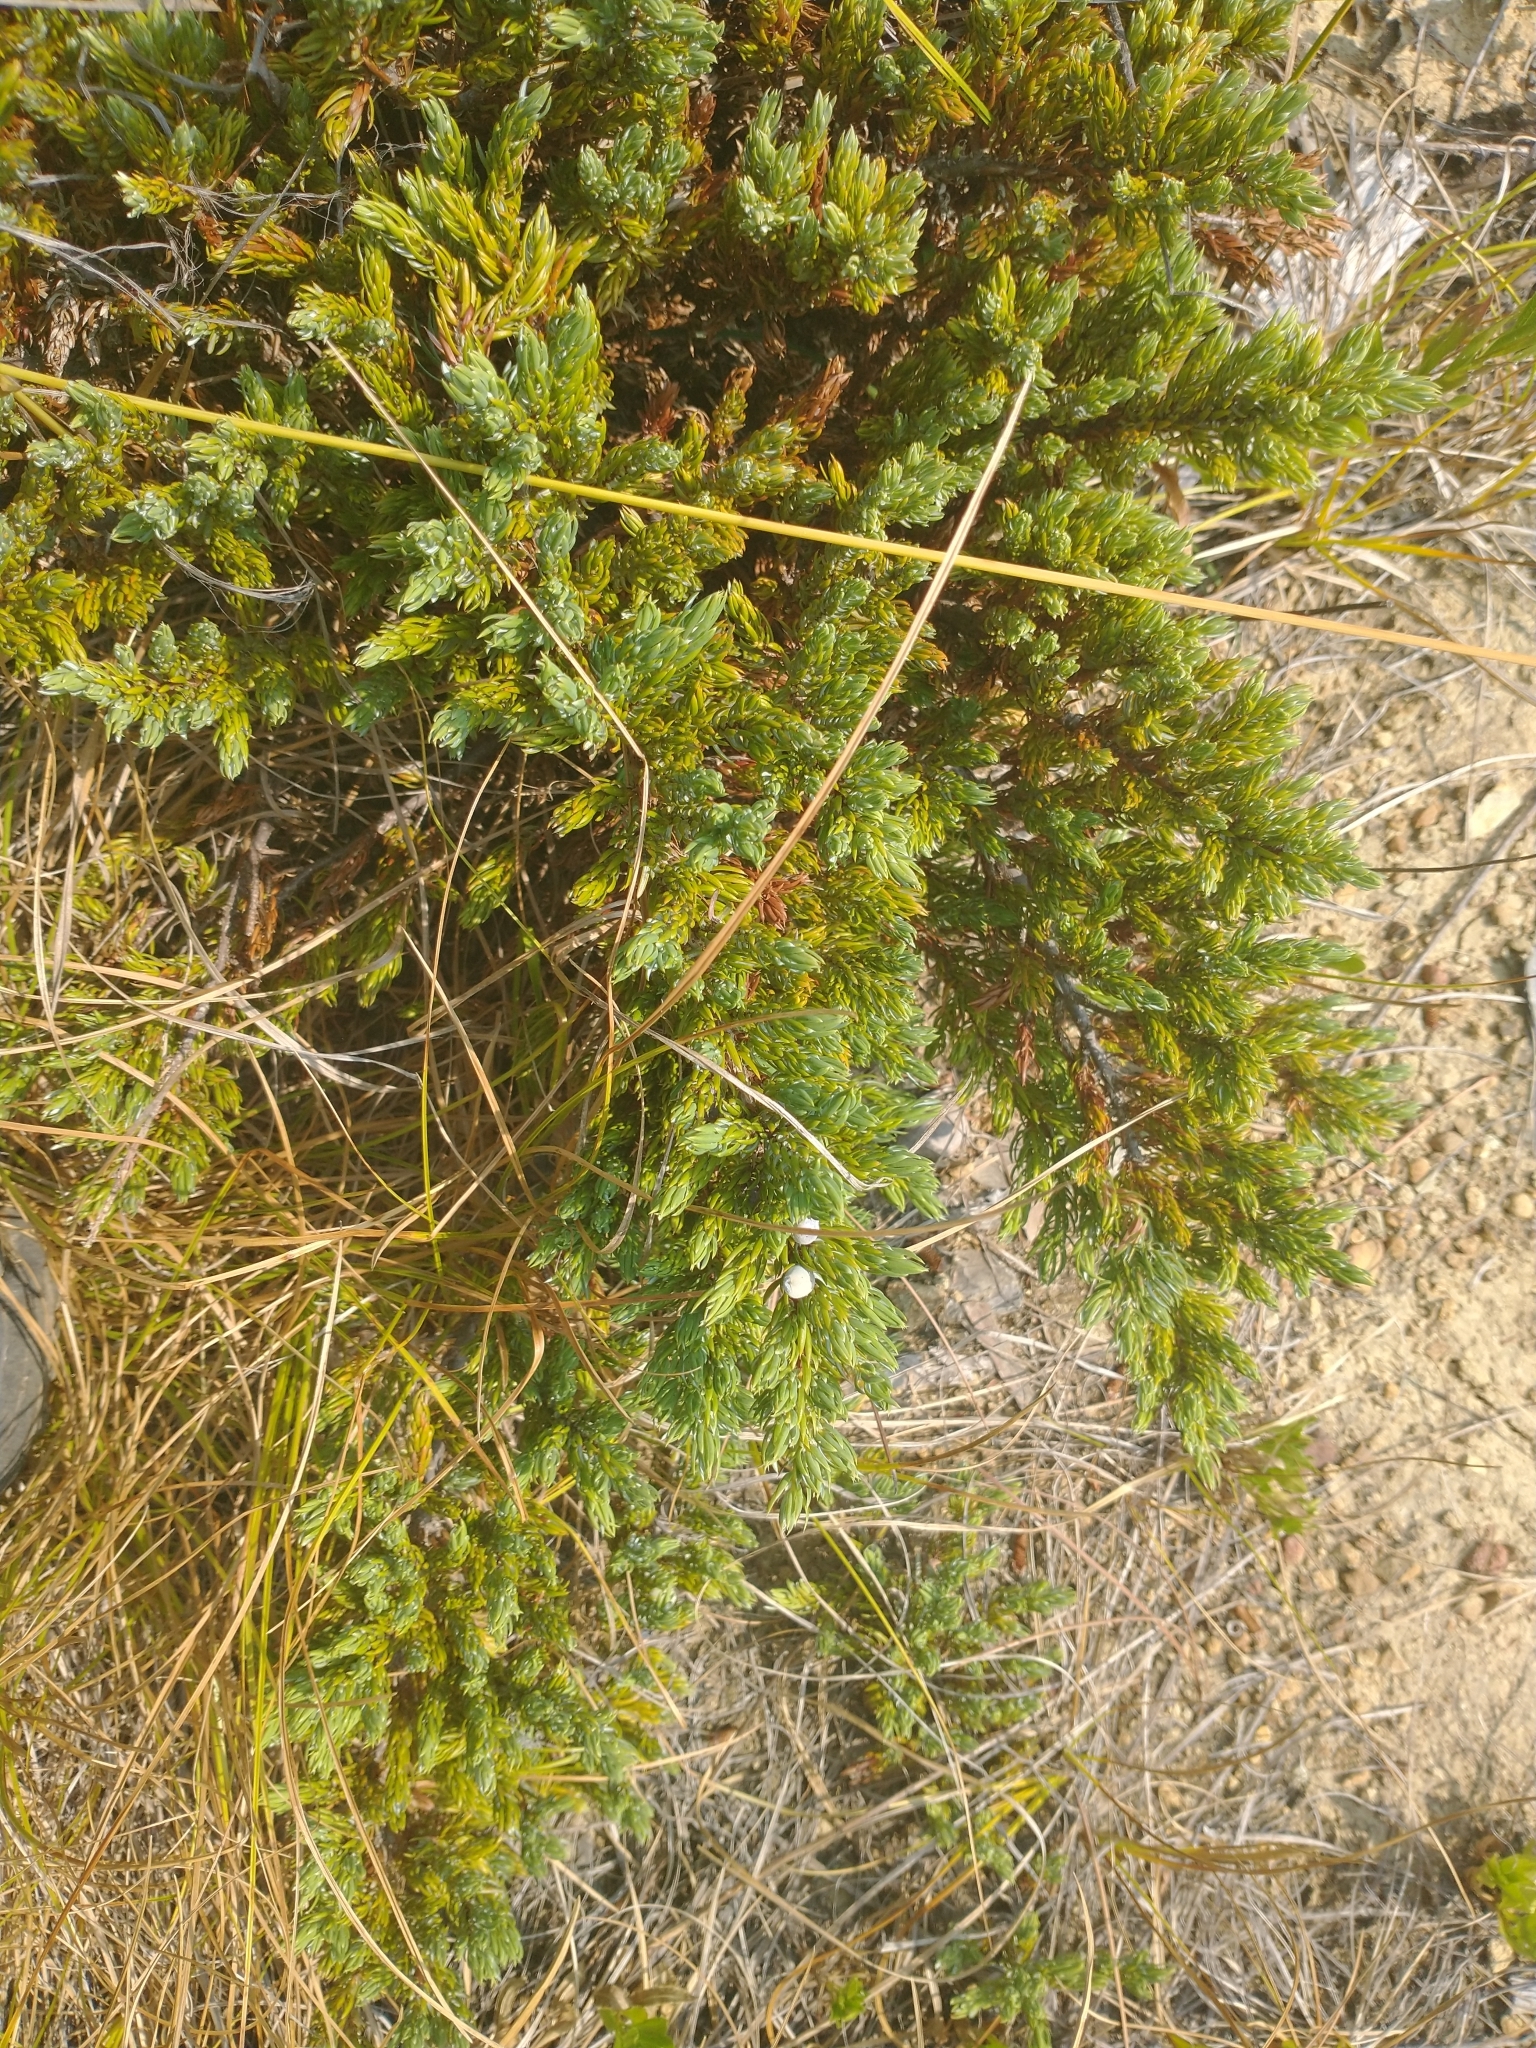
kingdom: Plantae
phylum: Tracheophyta
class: Pinopsida
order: Pinales
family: Cupressaceae
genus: Juniperus
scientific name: Juniperus communis
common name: Common juniper
